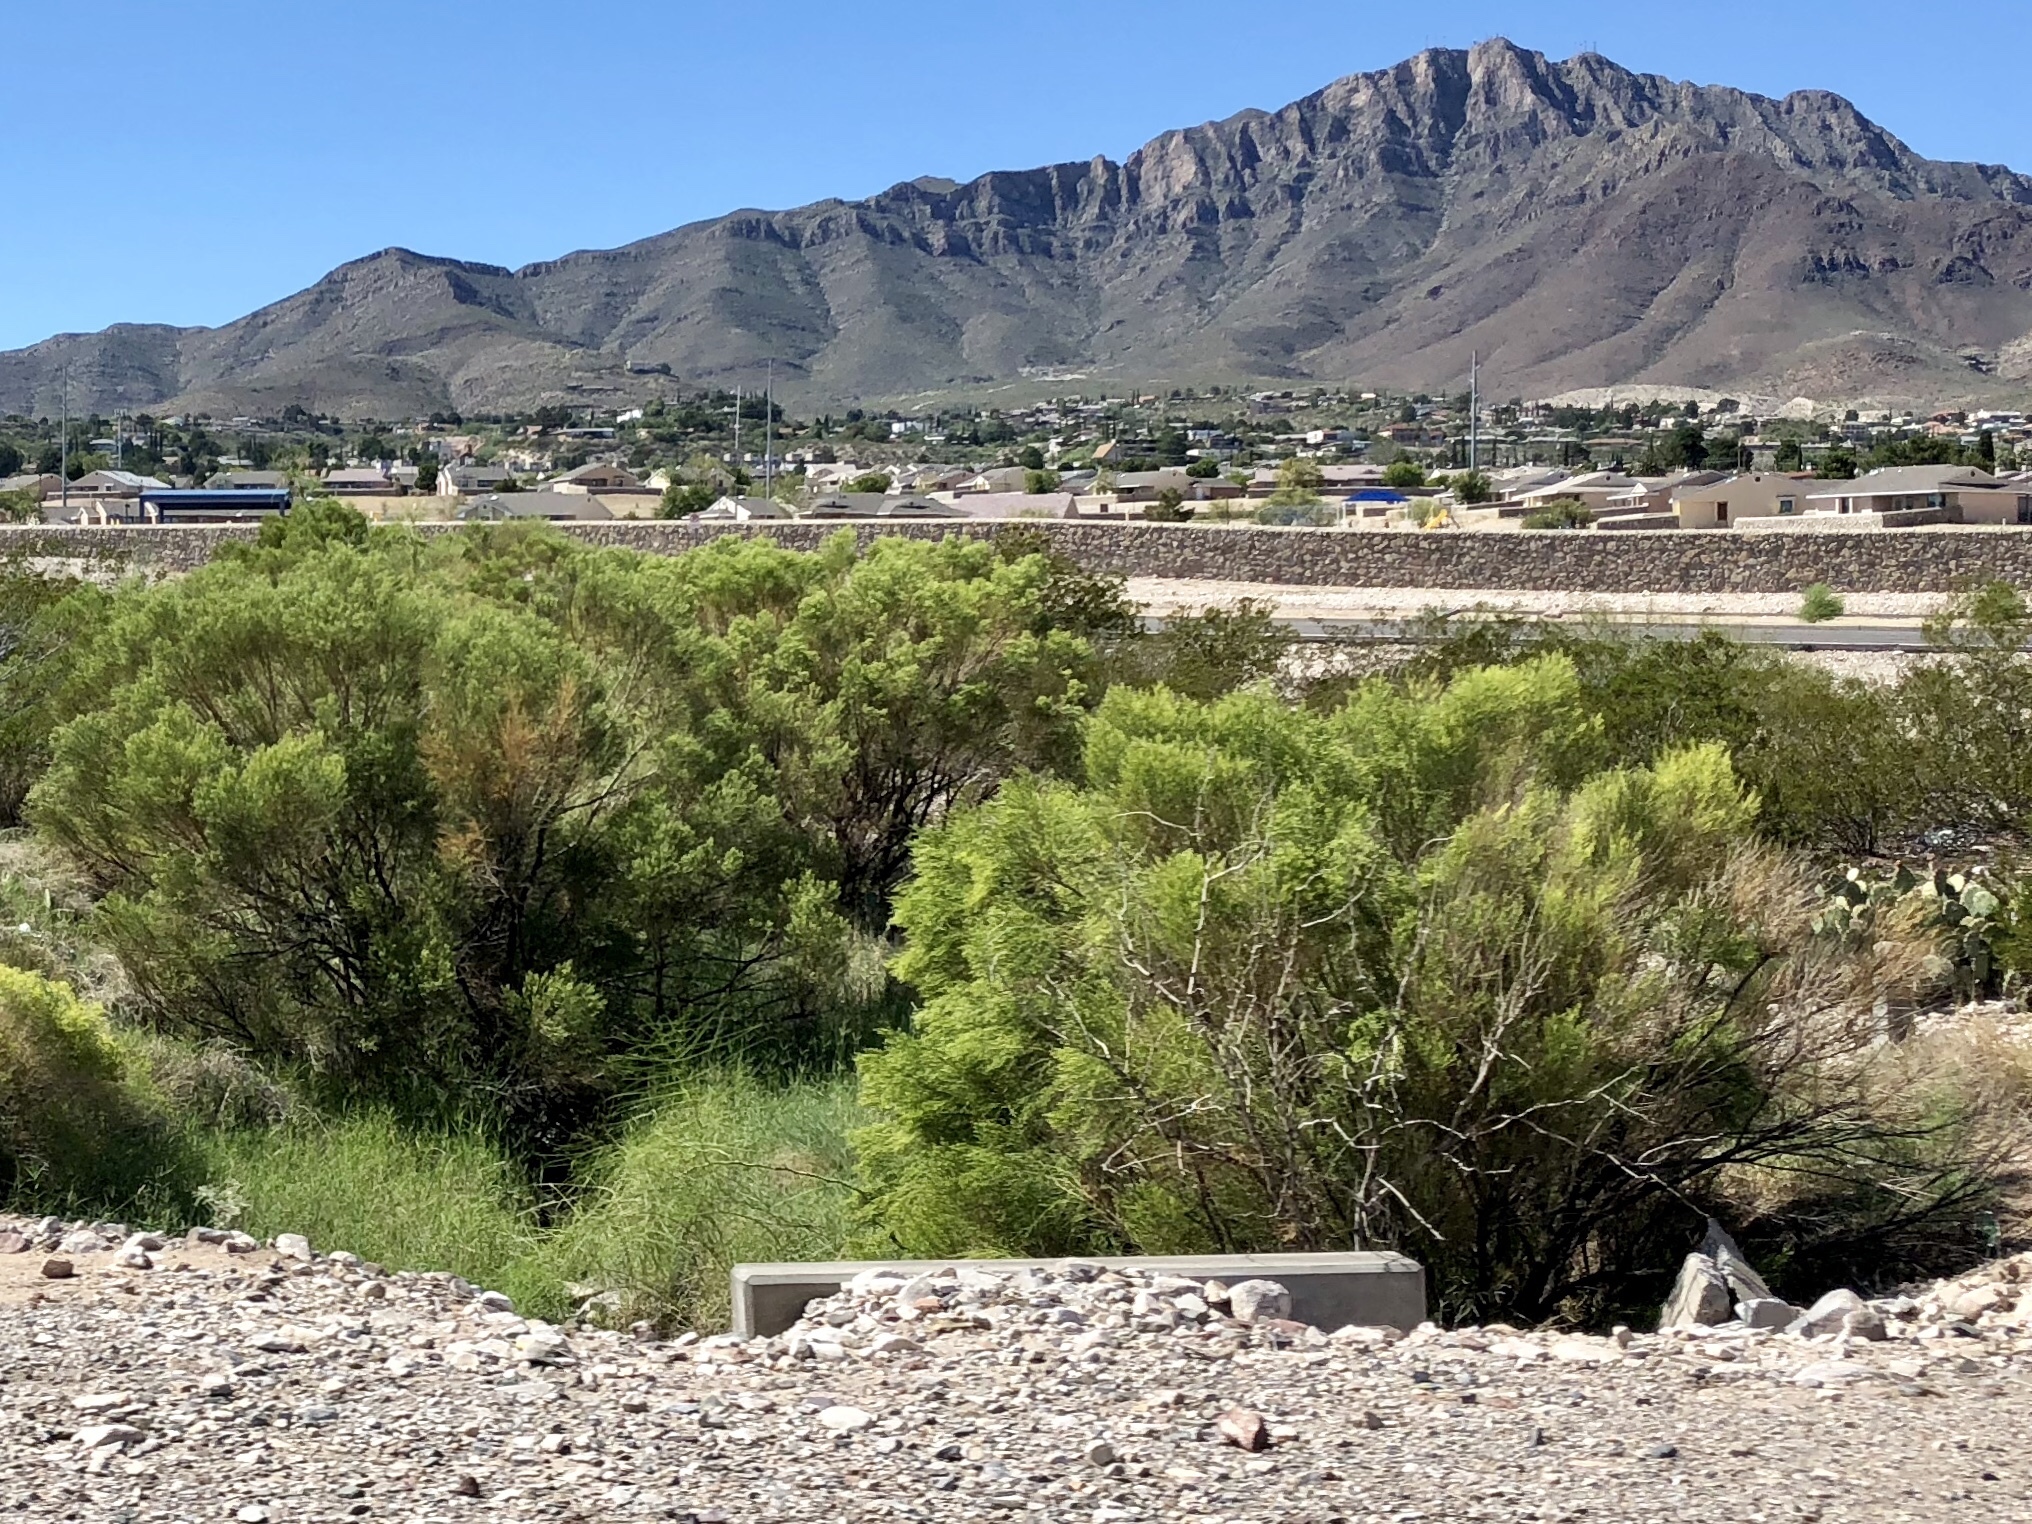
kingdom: Plantae
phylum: Tracheophyta
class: Magnoliopsida
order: Asterales
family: Asteraceae
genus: Baccharis
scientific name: Baccharis sarothroides
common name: Desert-broom
